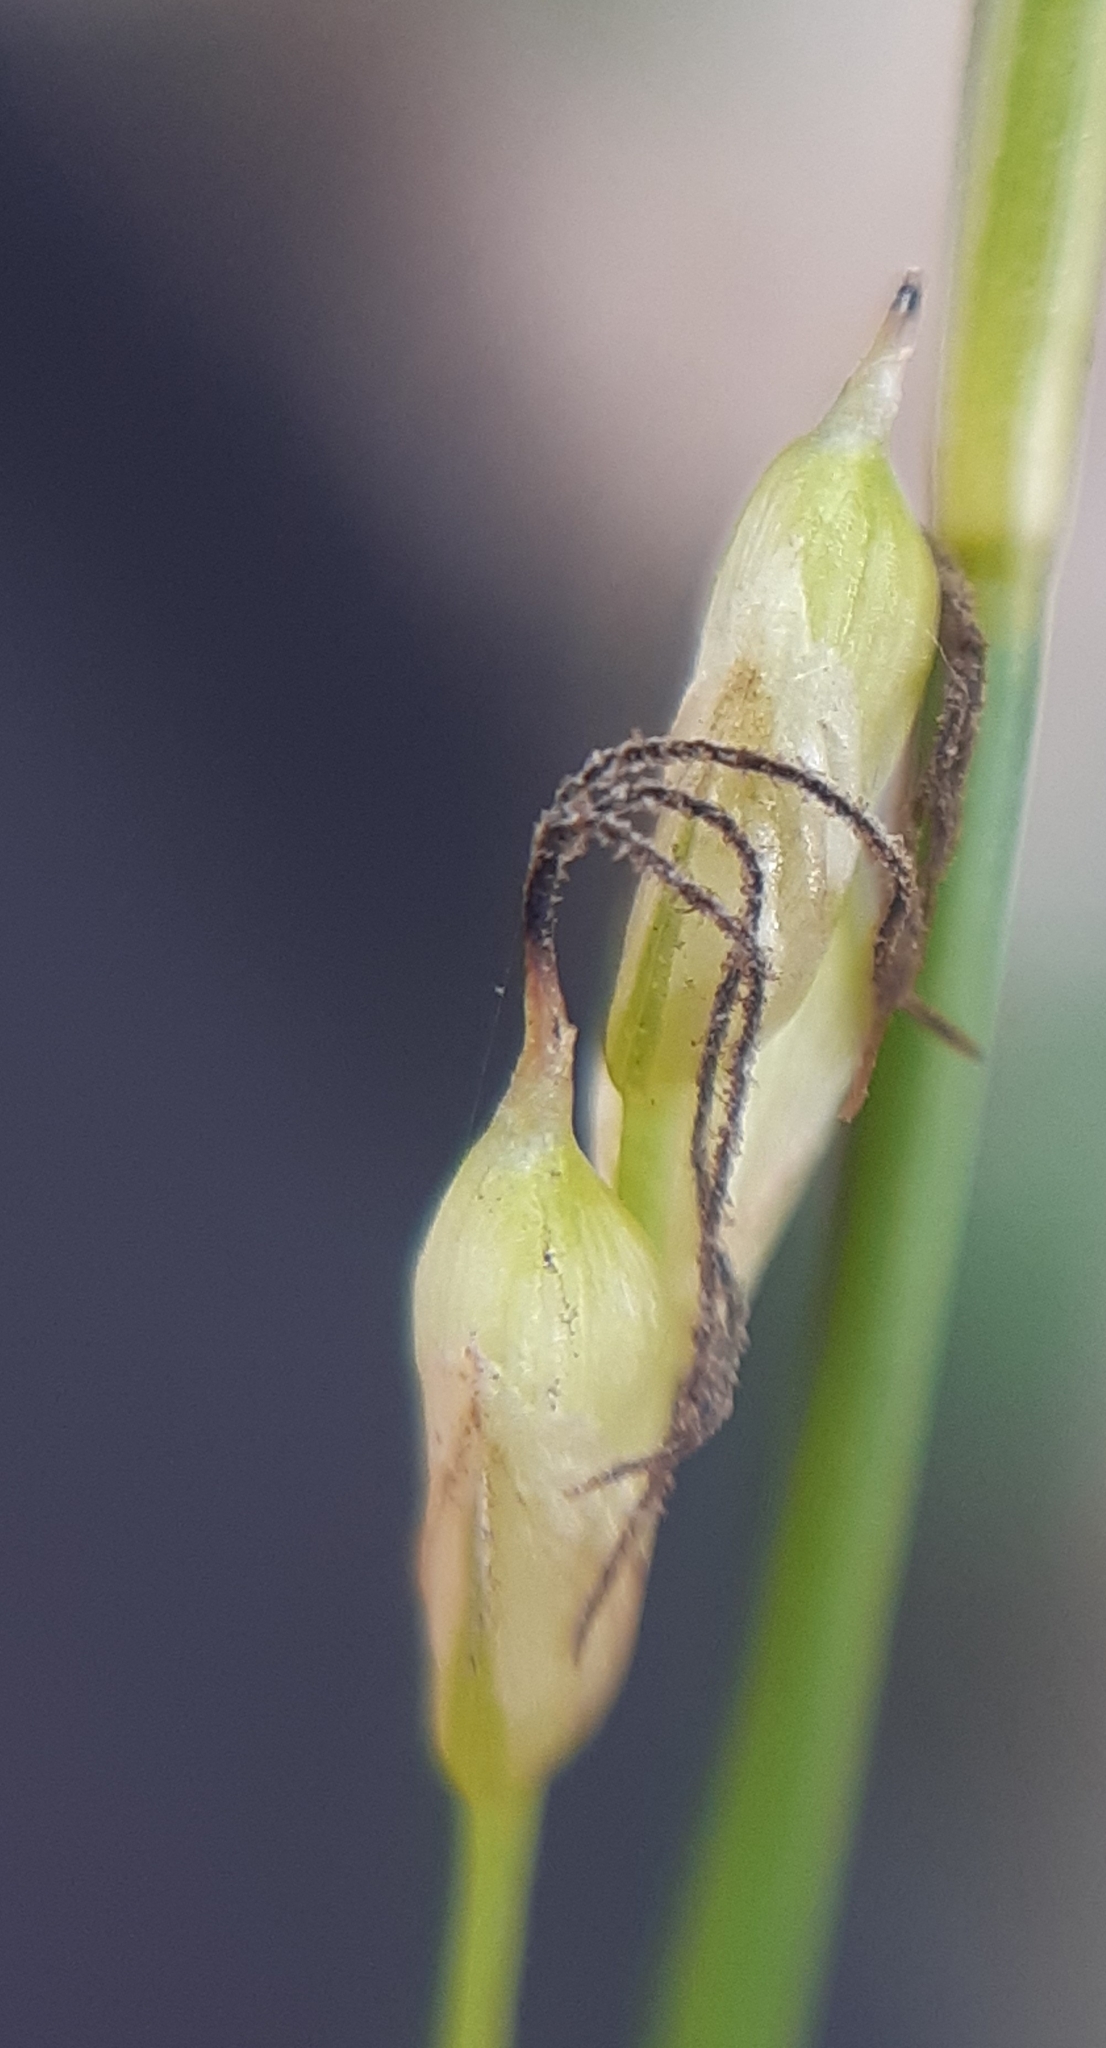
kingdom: Plantae
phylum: Tracheophyta
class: Liliopsida
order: Poales
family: Cyperaceae
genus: Carex
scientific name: Carex alba
